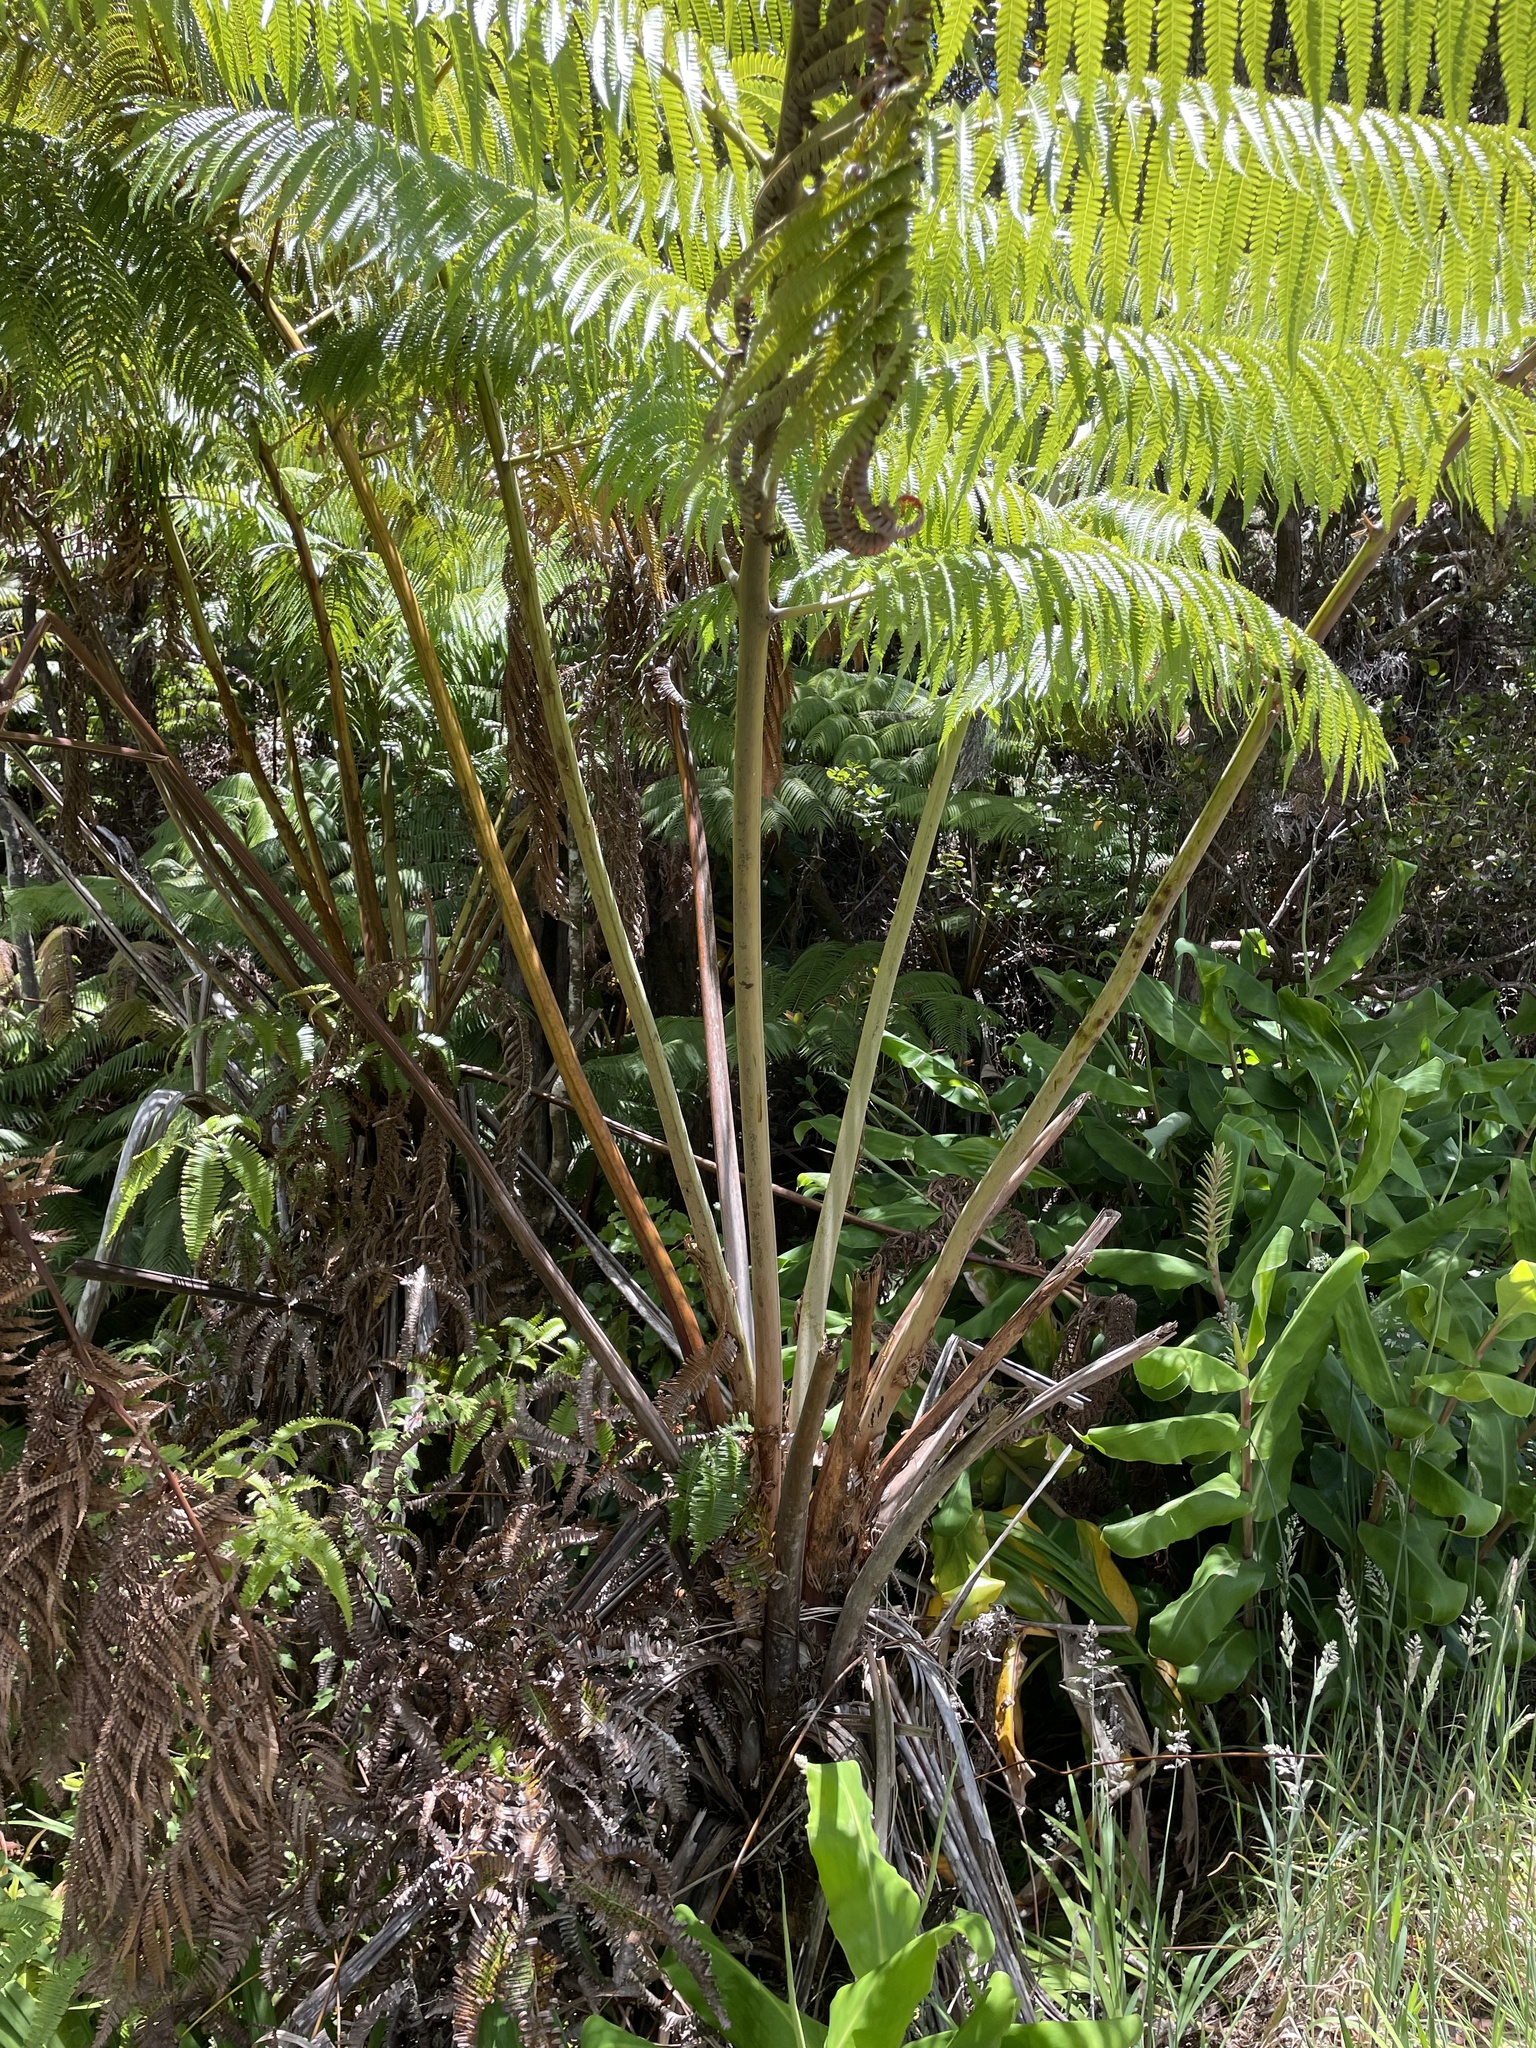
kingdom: Plantae
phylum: Tracheophyta
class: Polypodiopsida
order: Cyatheales
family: Cibotiaceae
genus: Cibotium
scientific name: Cibotium glaucum
